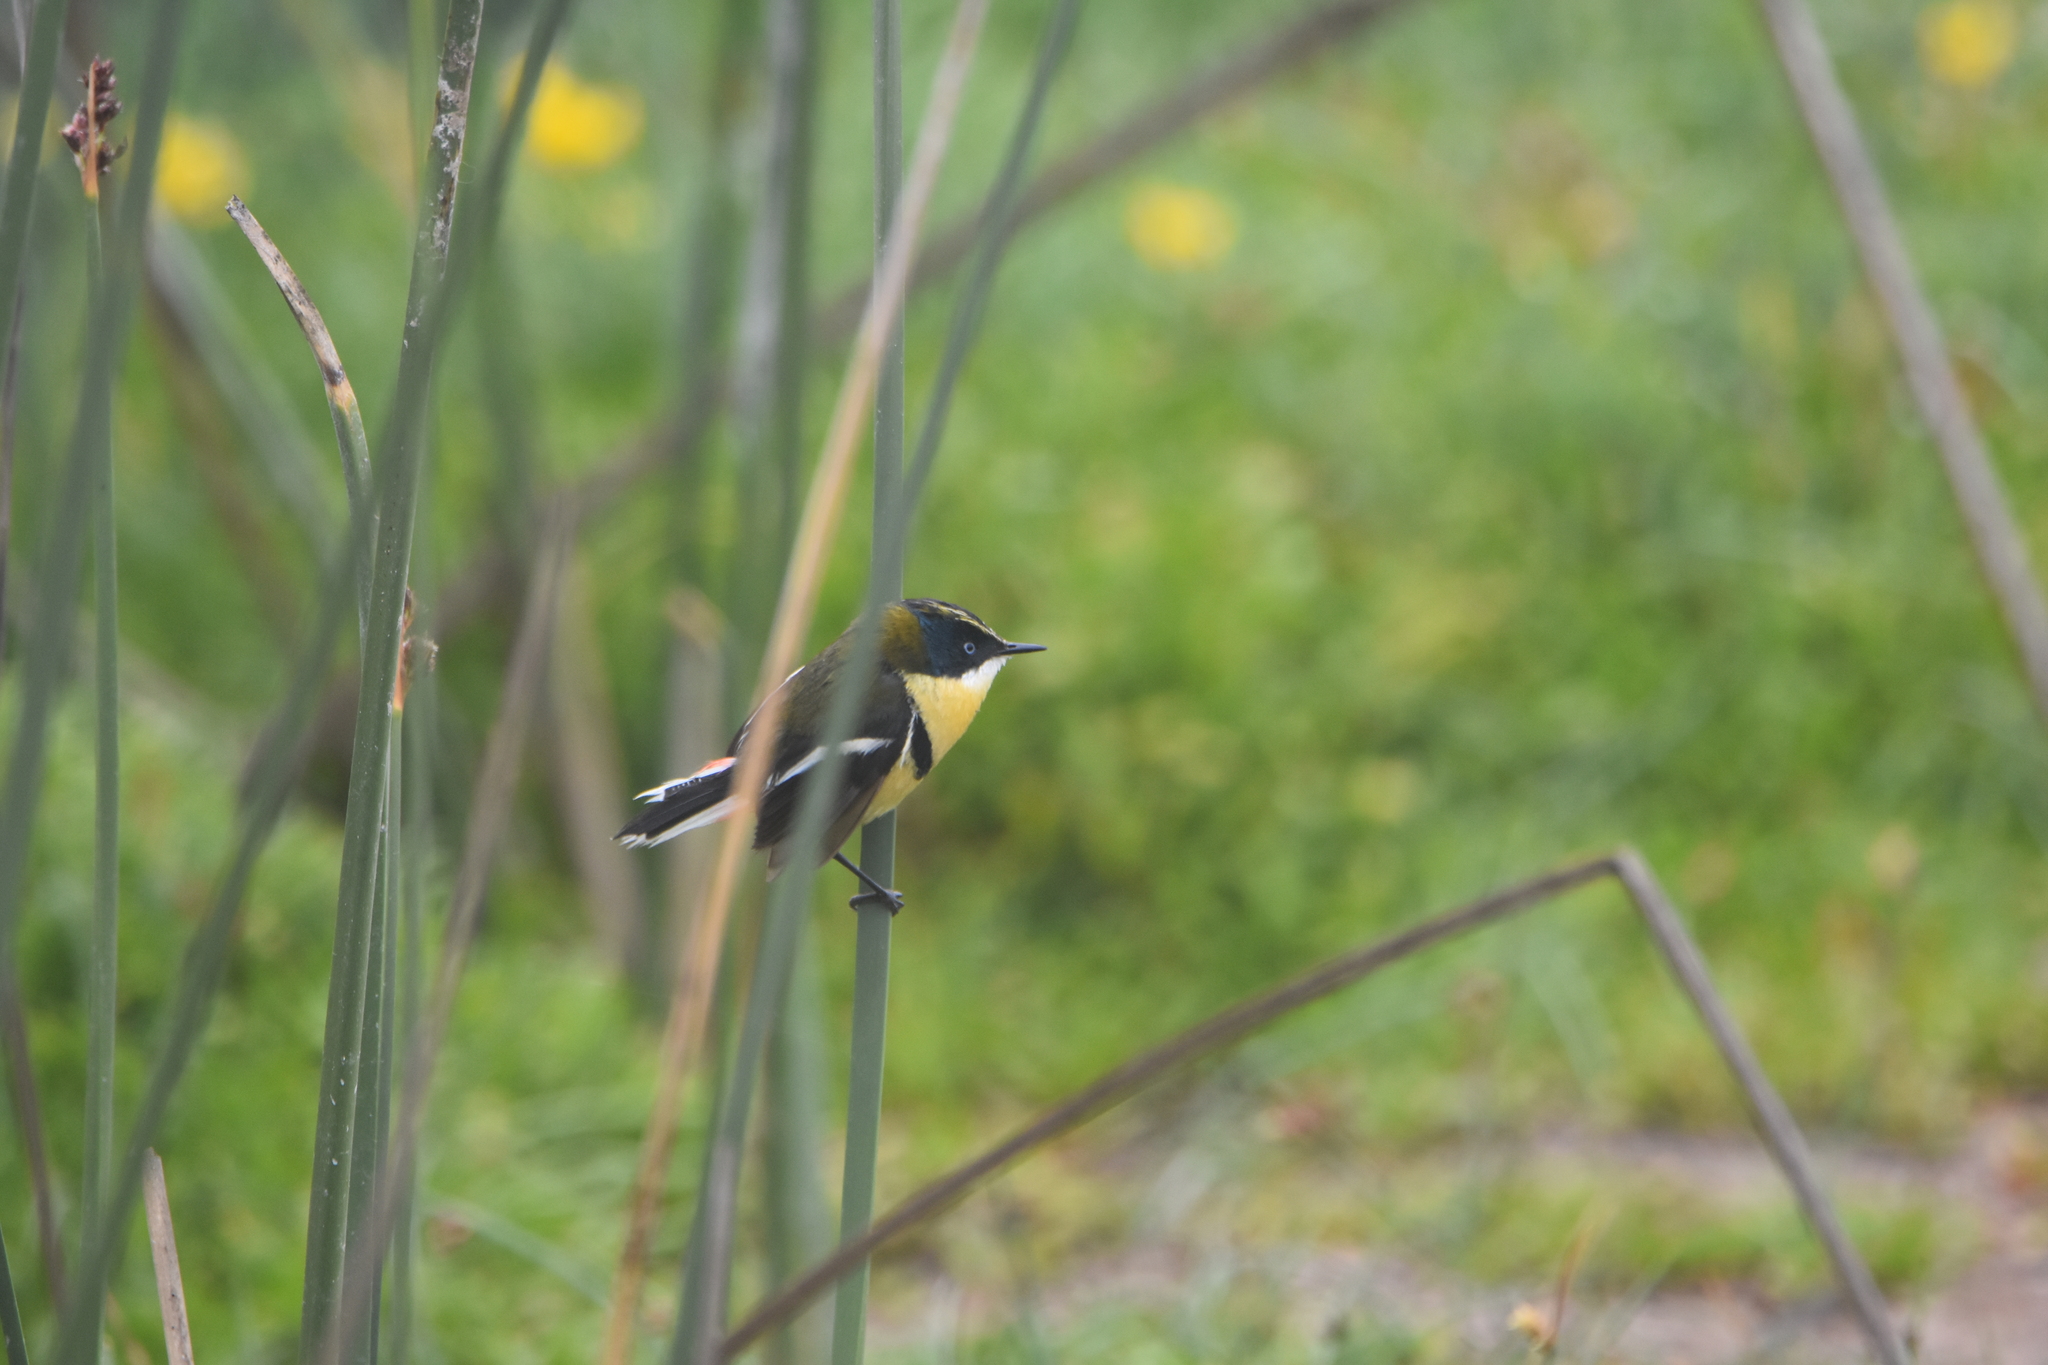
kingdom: Animalia
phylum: Chordata
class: Aves
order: Passeriformes
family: Tyrannidae
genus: Tachuris
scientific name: Tachuris rubrigastra
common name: Many-colored rush tyrant
